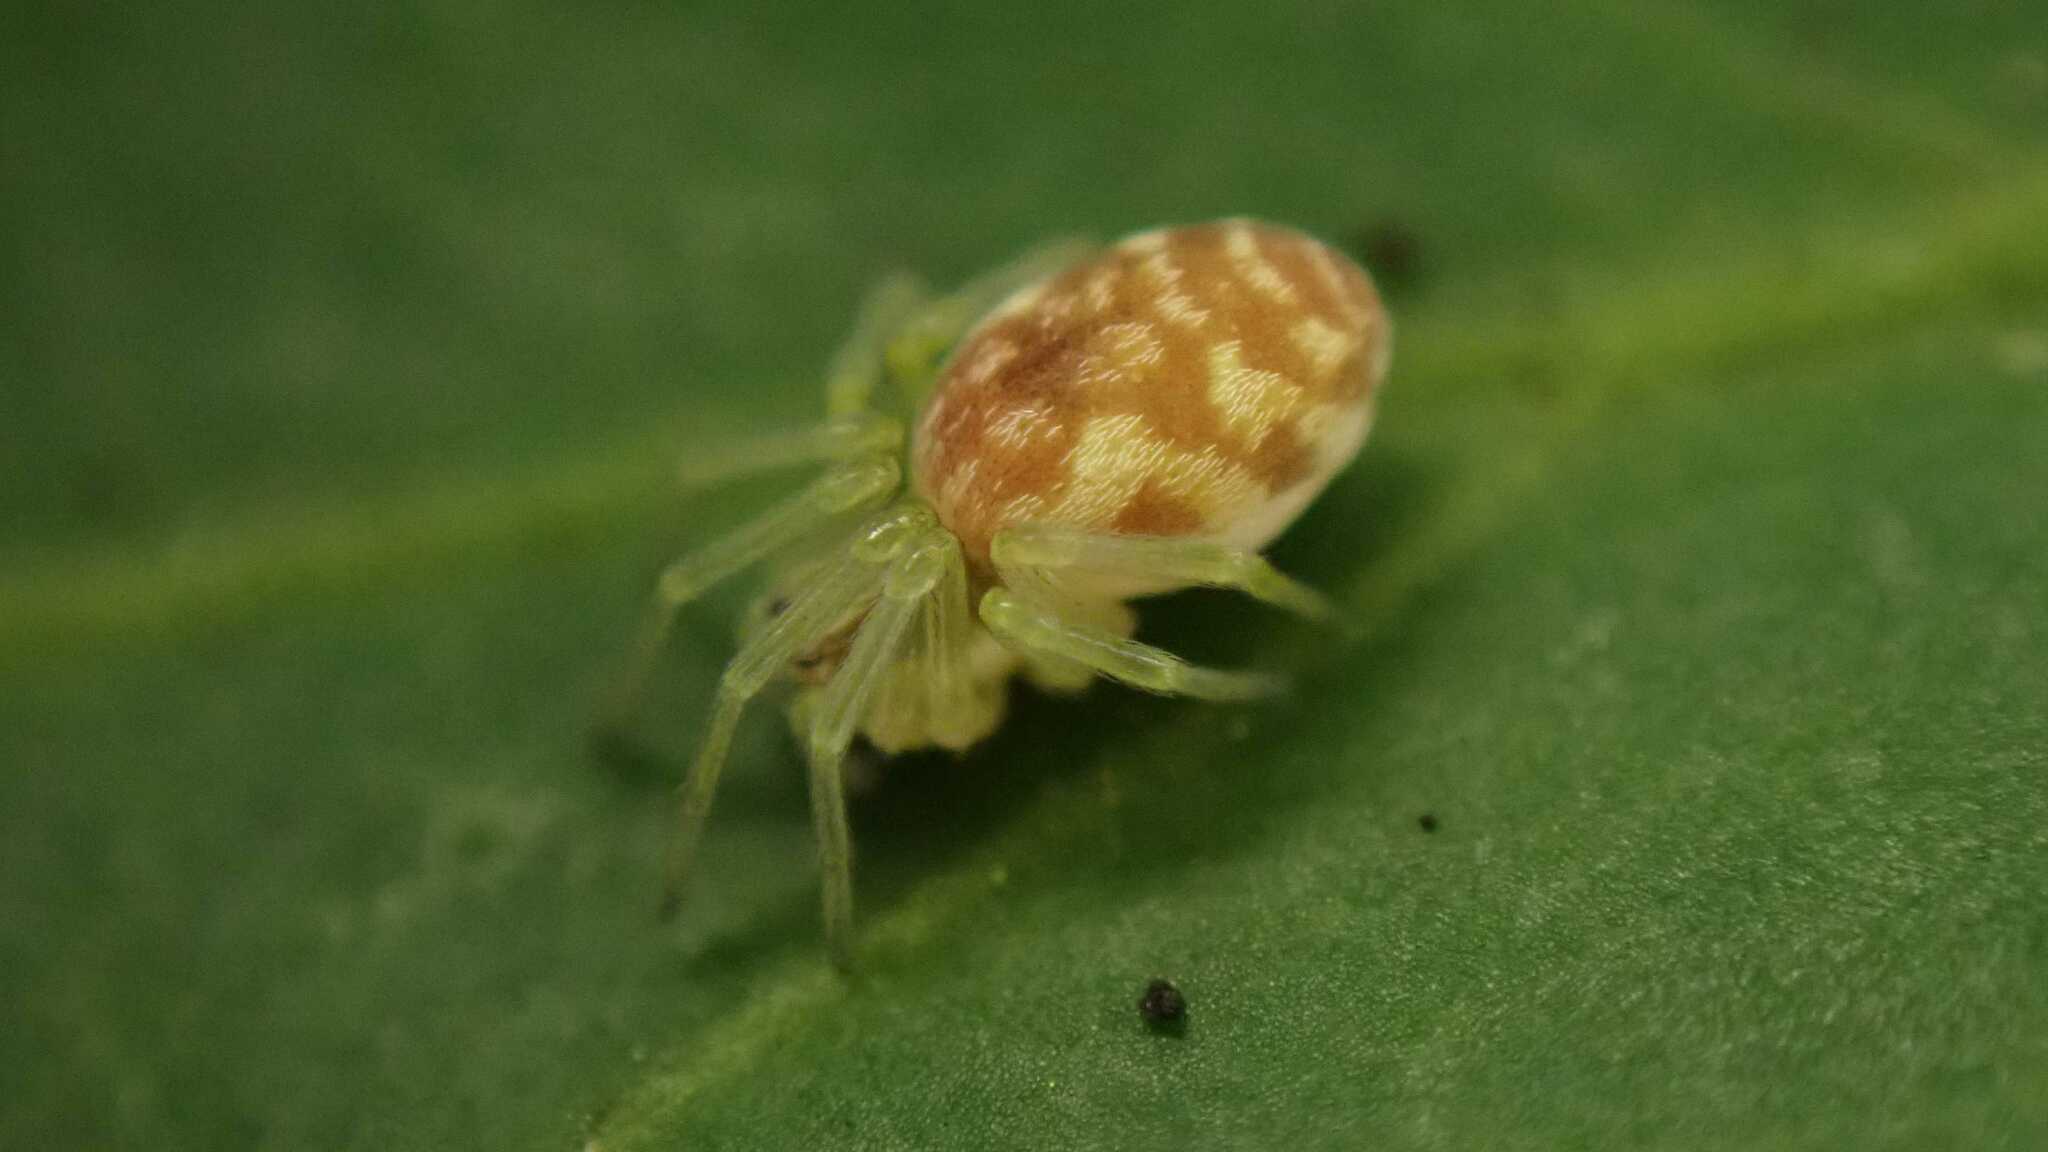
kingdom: Animalia
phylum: Arthropoda
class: Arachnida
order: Araneae
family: Dictynidae
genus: Nigma
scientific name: Nigma flavescens
